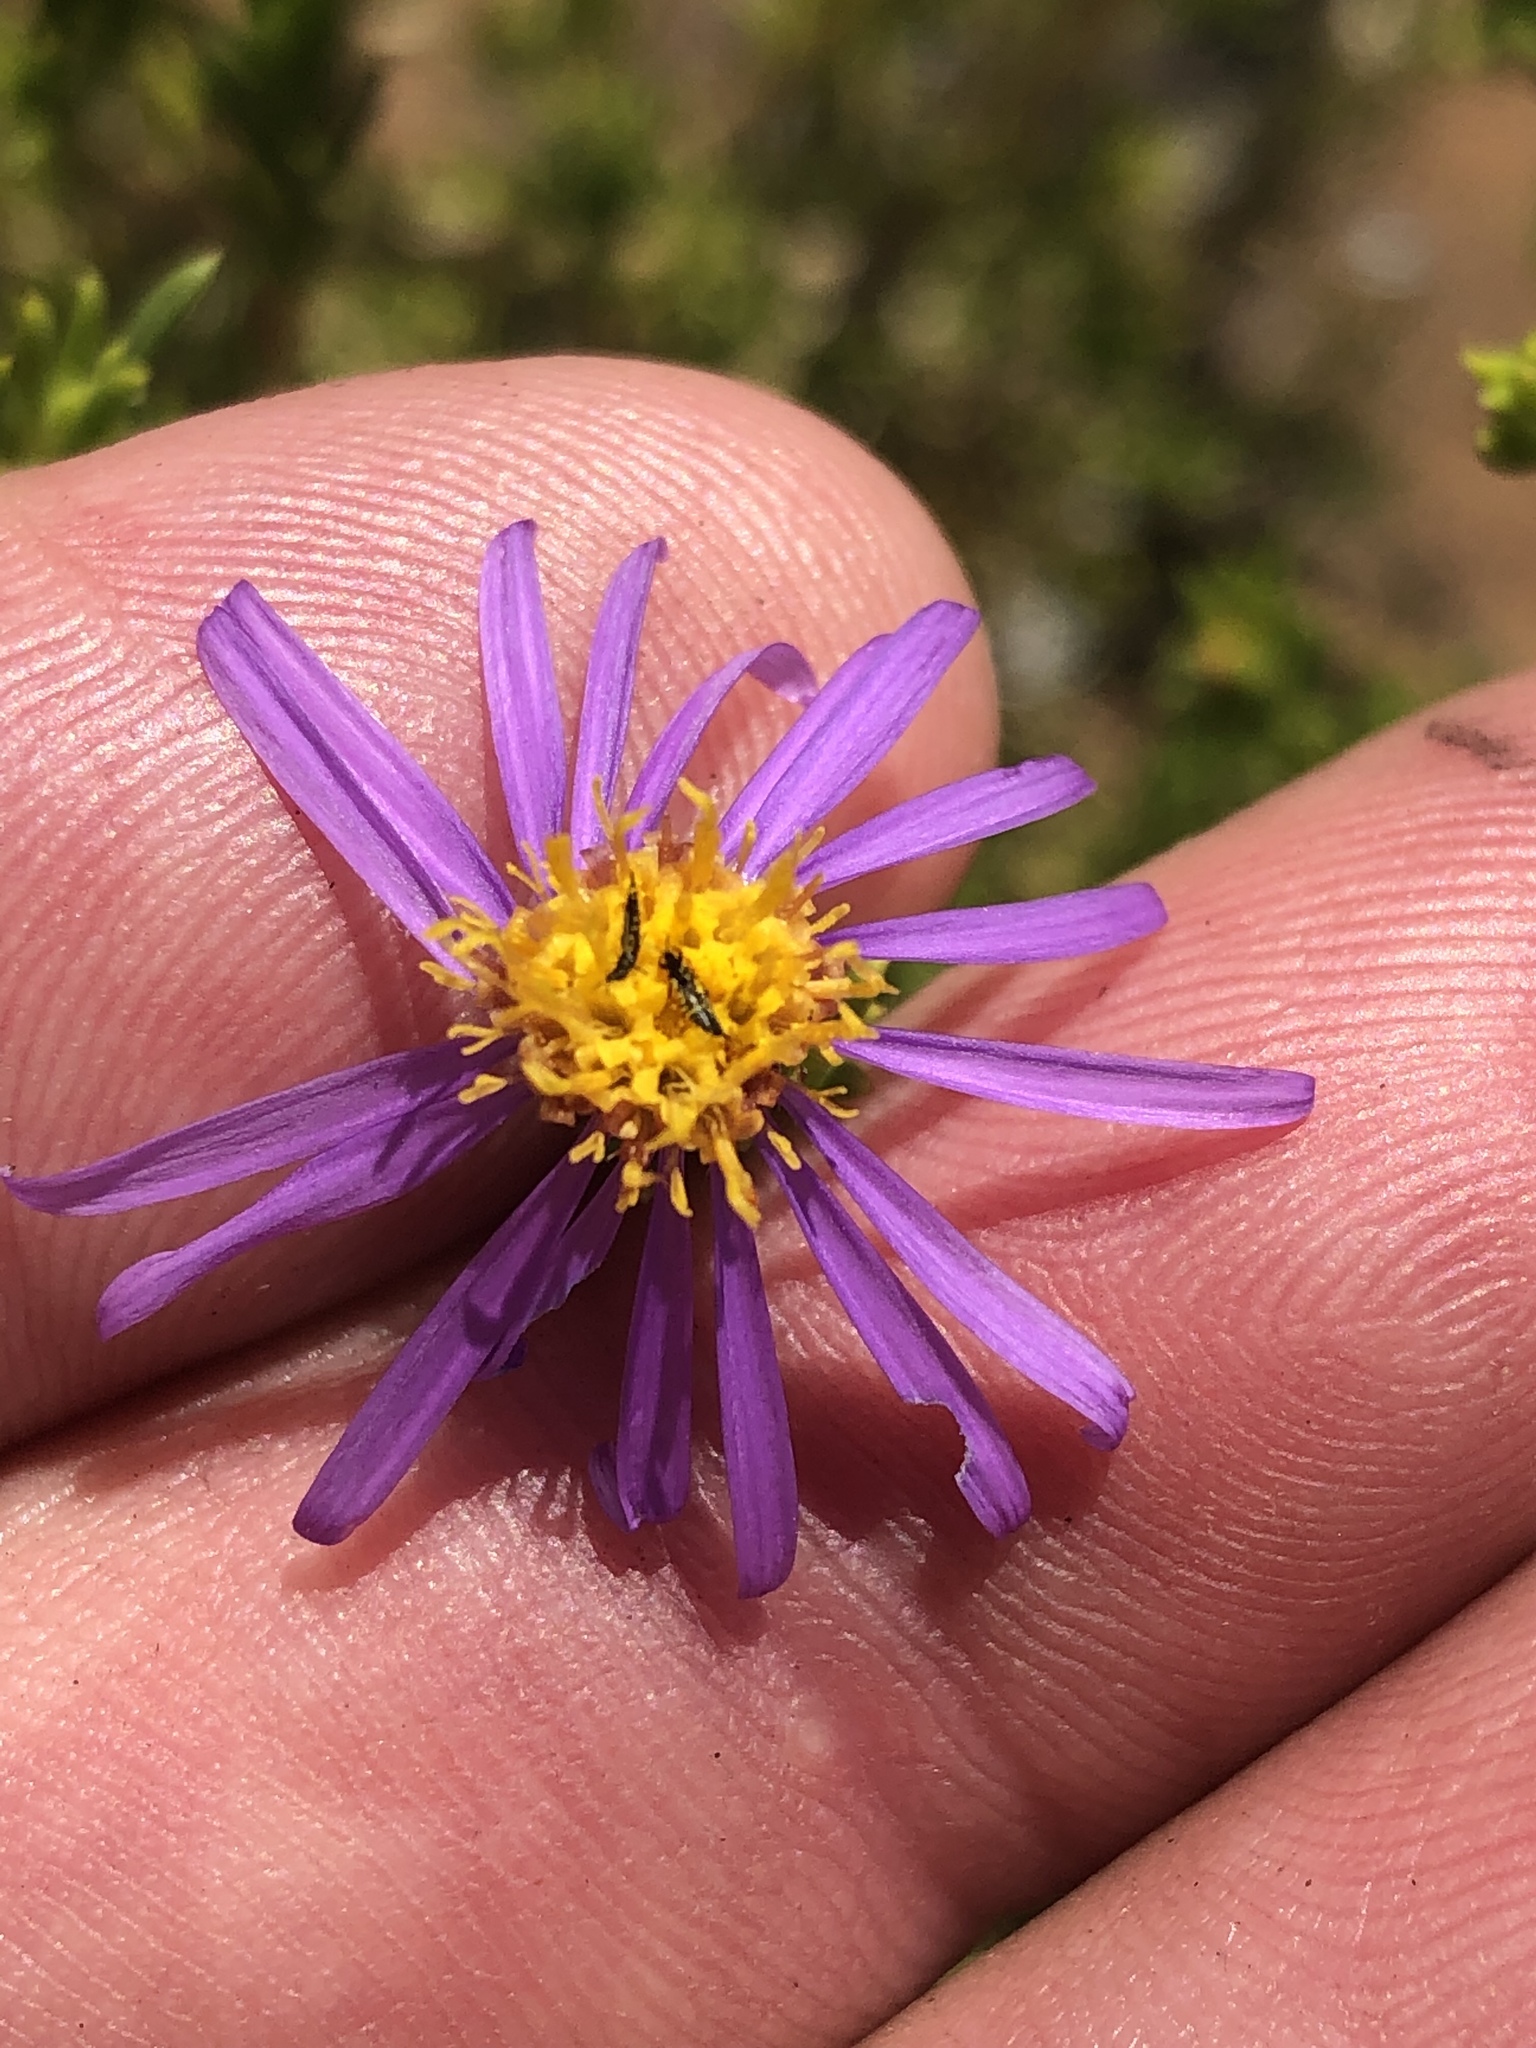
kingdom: Plantae
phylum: Tracheophyta
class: Magnoliopsida
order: Asterales
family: Asteraceae
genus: Felicia
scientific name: Felicia oleosa
